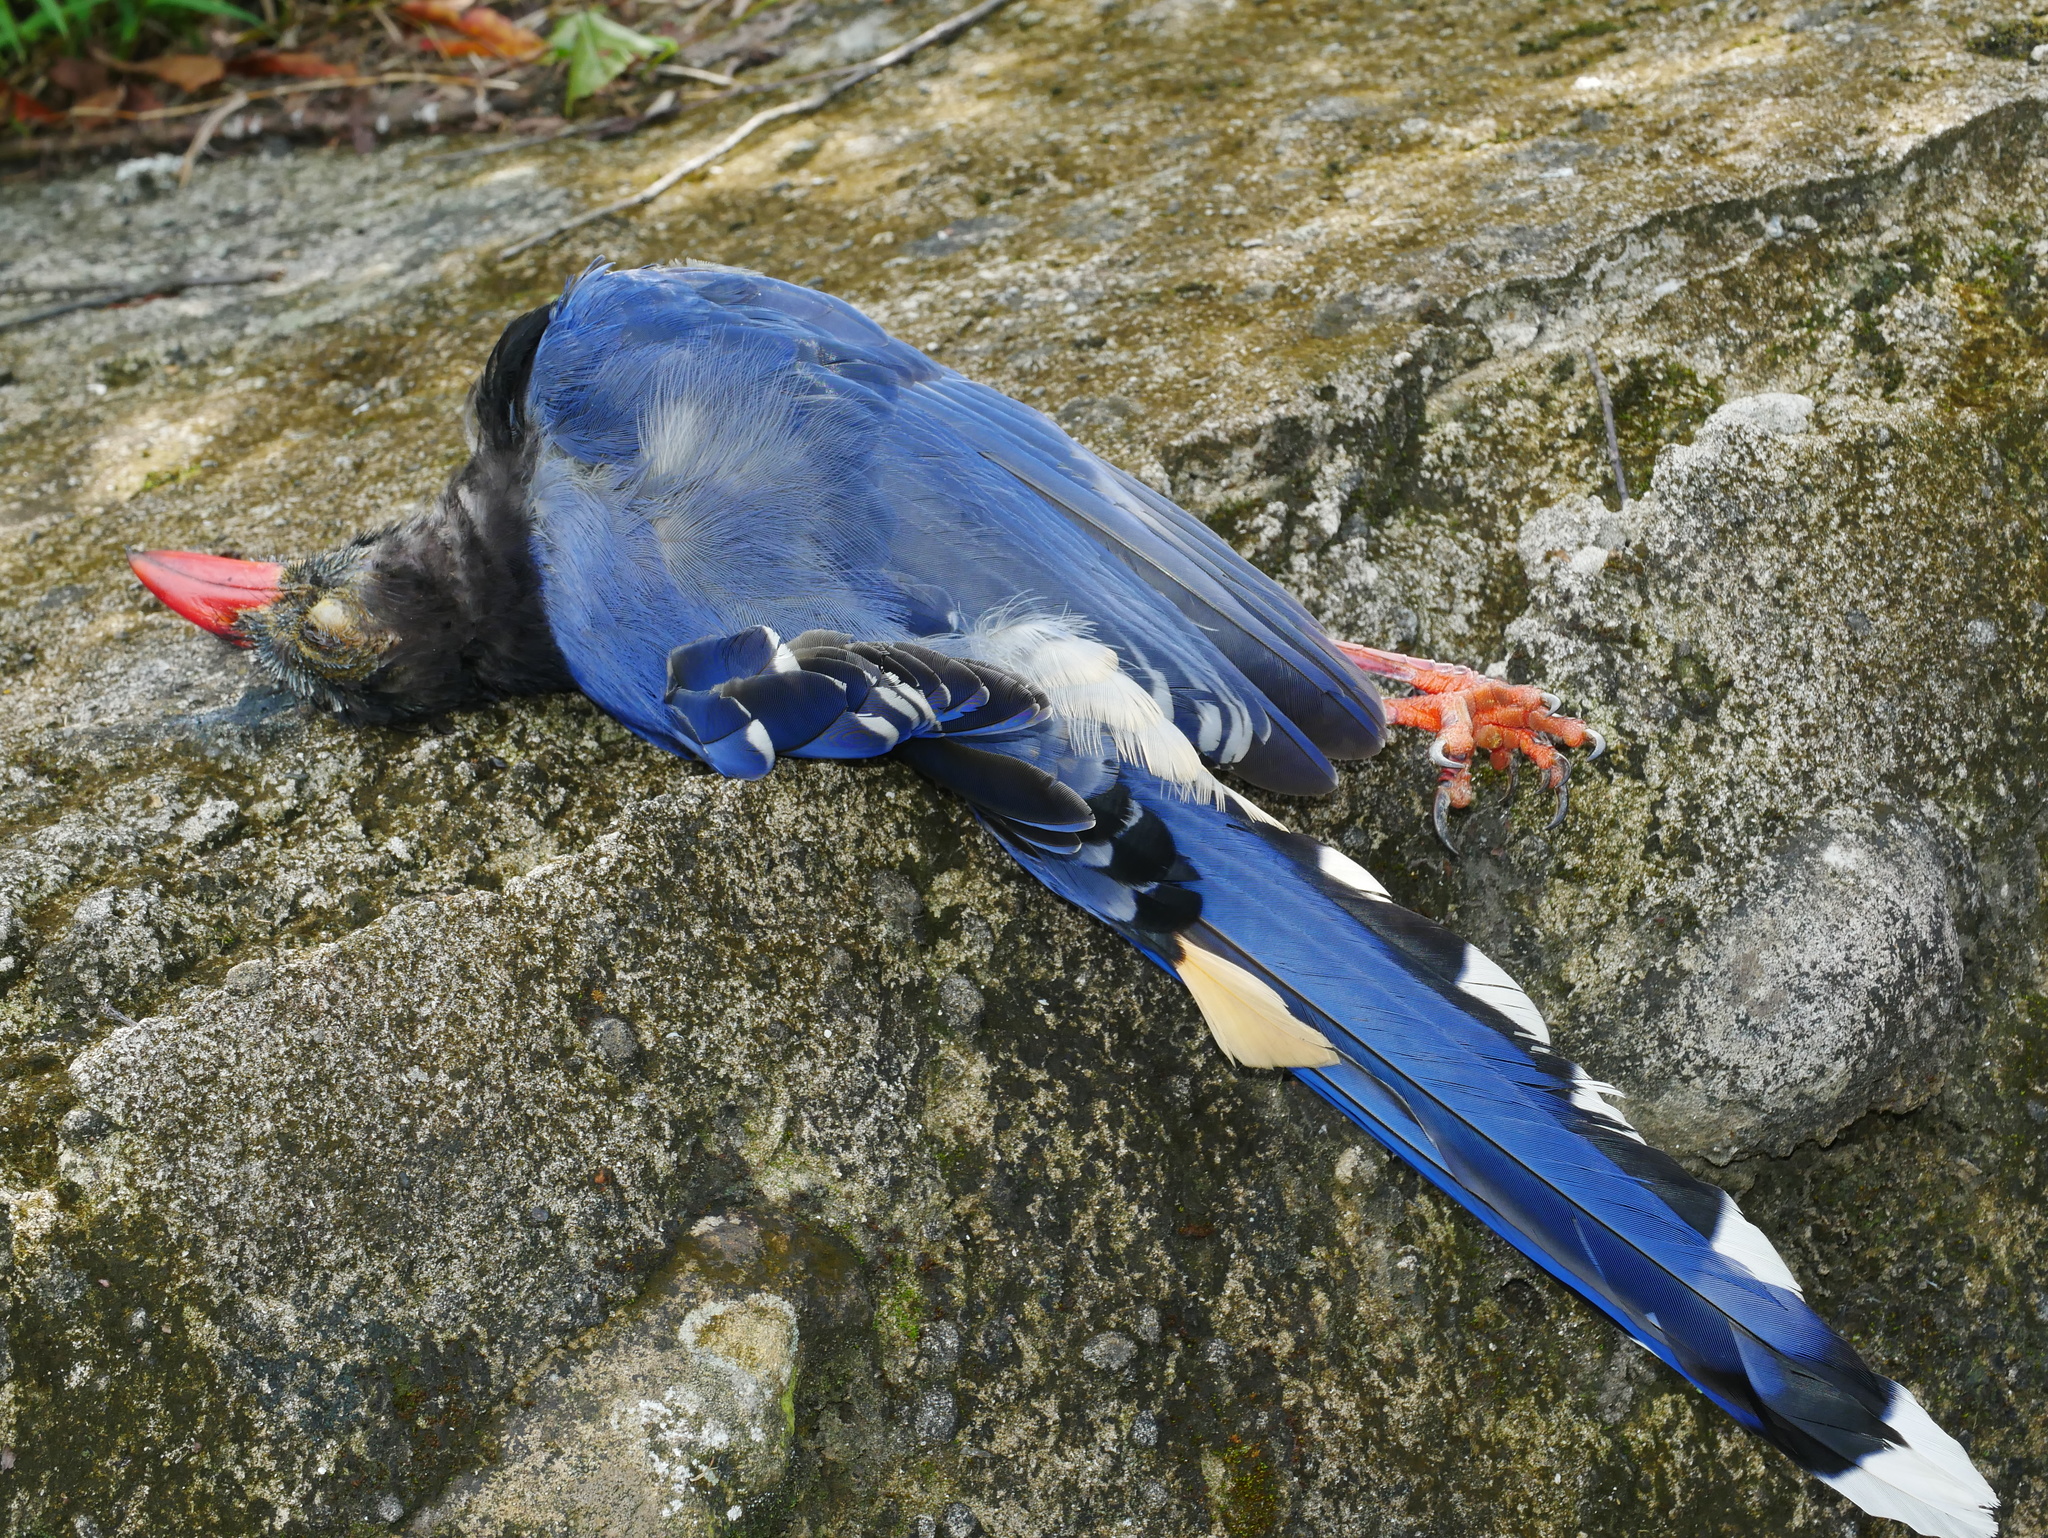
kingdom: Animalia
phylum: Chordata
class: Aves
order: Passeriformes
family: Corvidae
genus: Urocissa
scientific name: Urocissa caerulea
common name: Taiwan blue magpie
